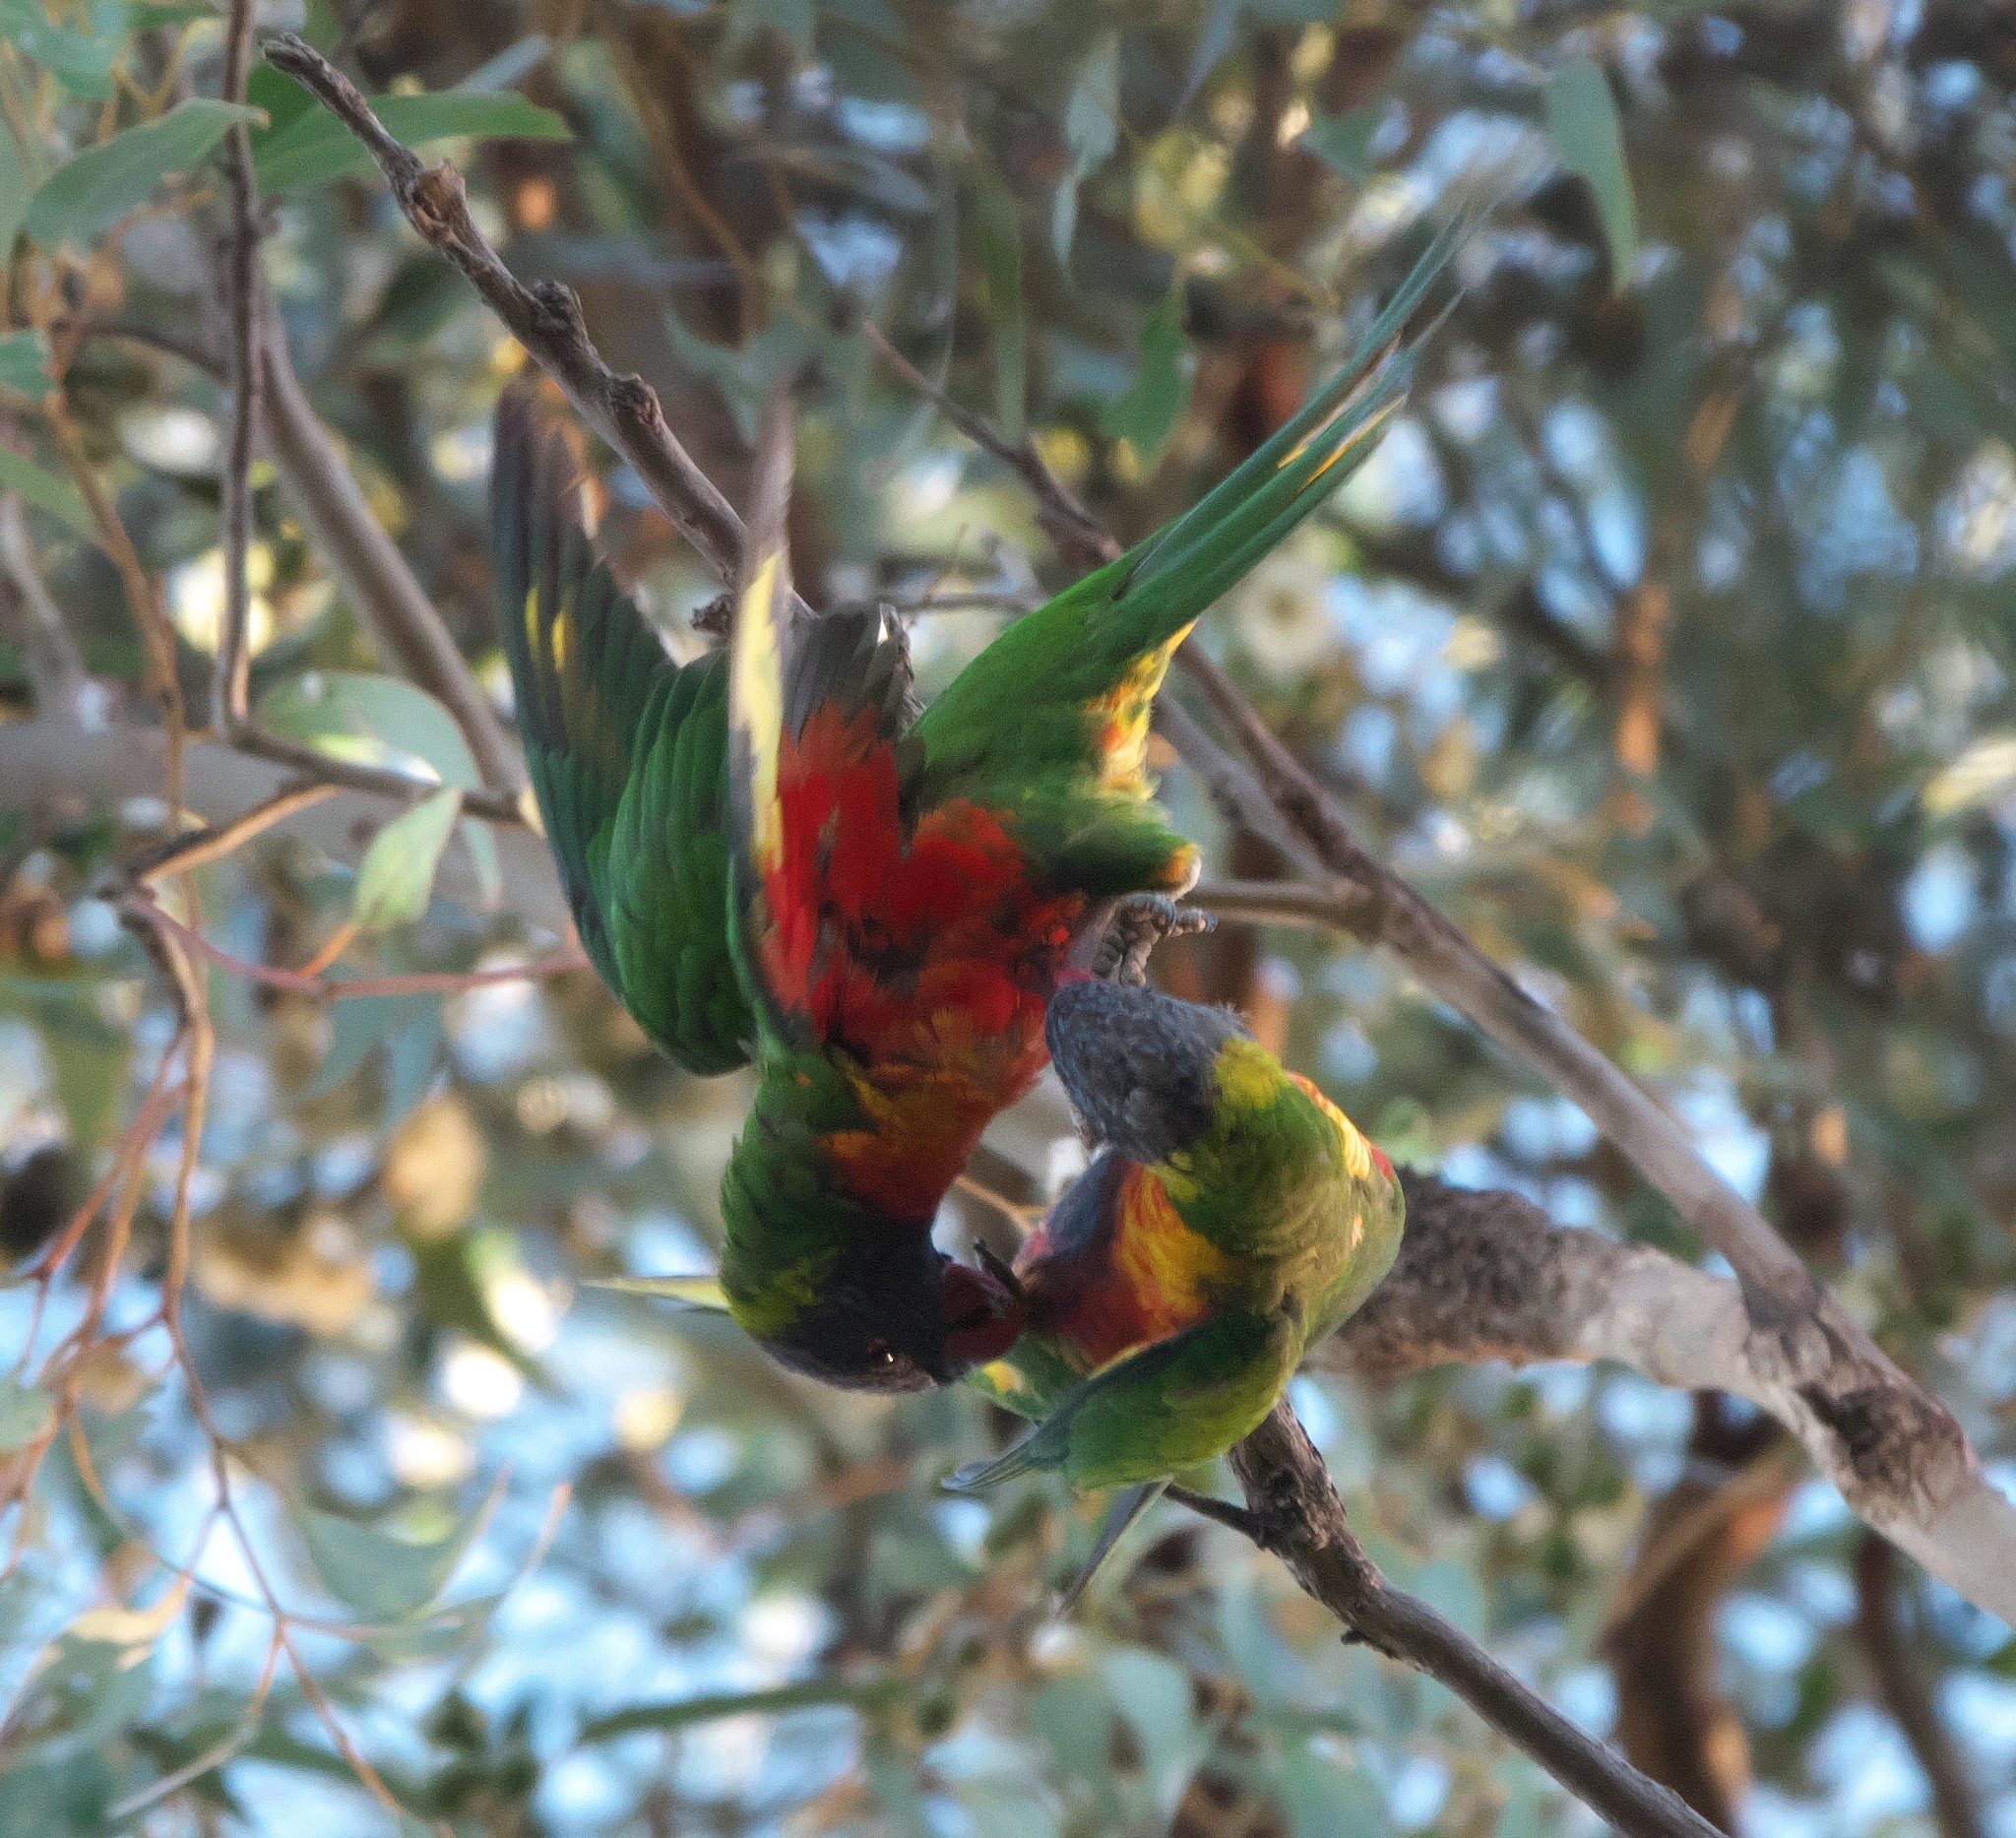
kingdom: Animalia
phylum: Chordata
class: Aves
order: Psittaciformes
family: Psittacidae
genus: Trichoglossus
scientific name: Trichoglossus haematodus
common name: Coconut lorikeet
